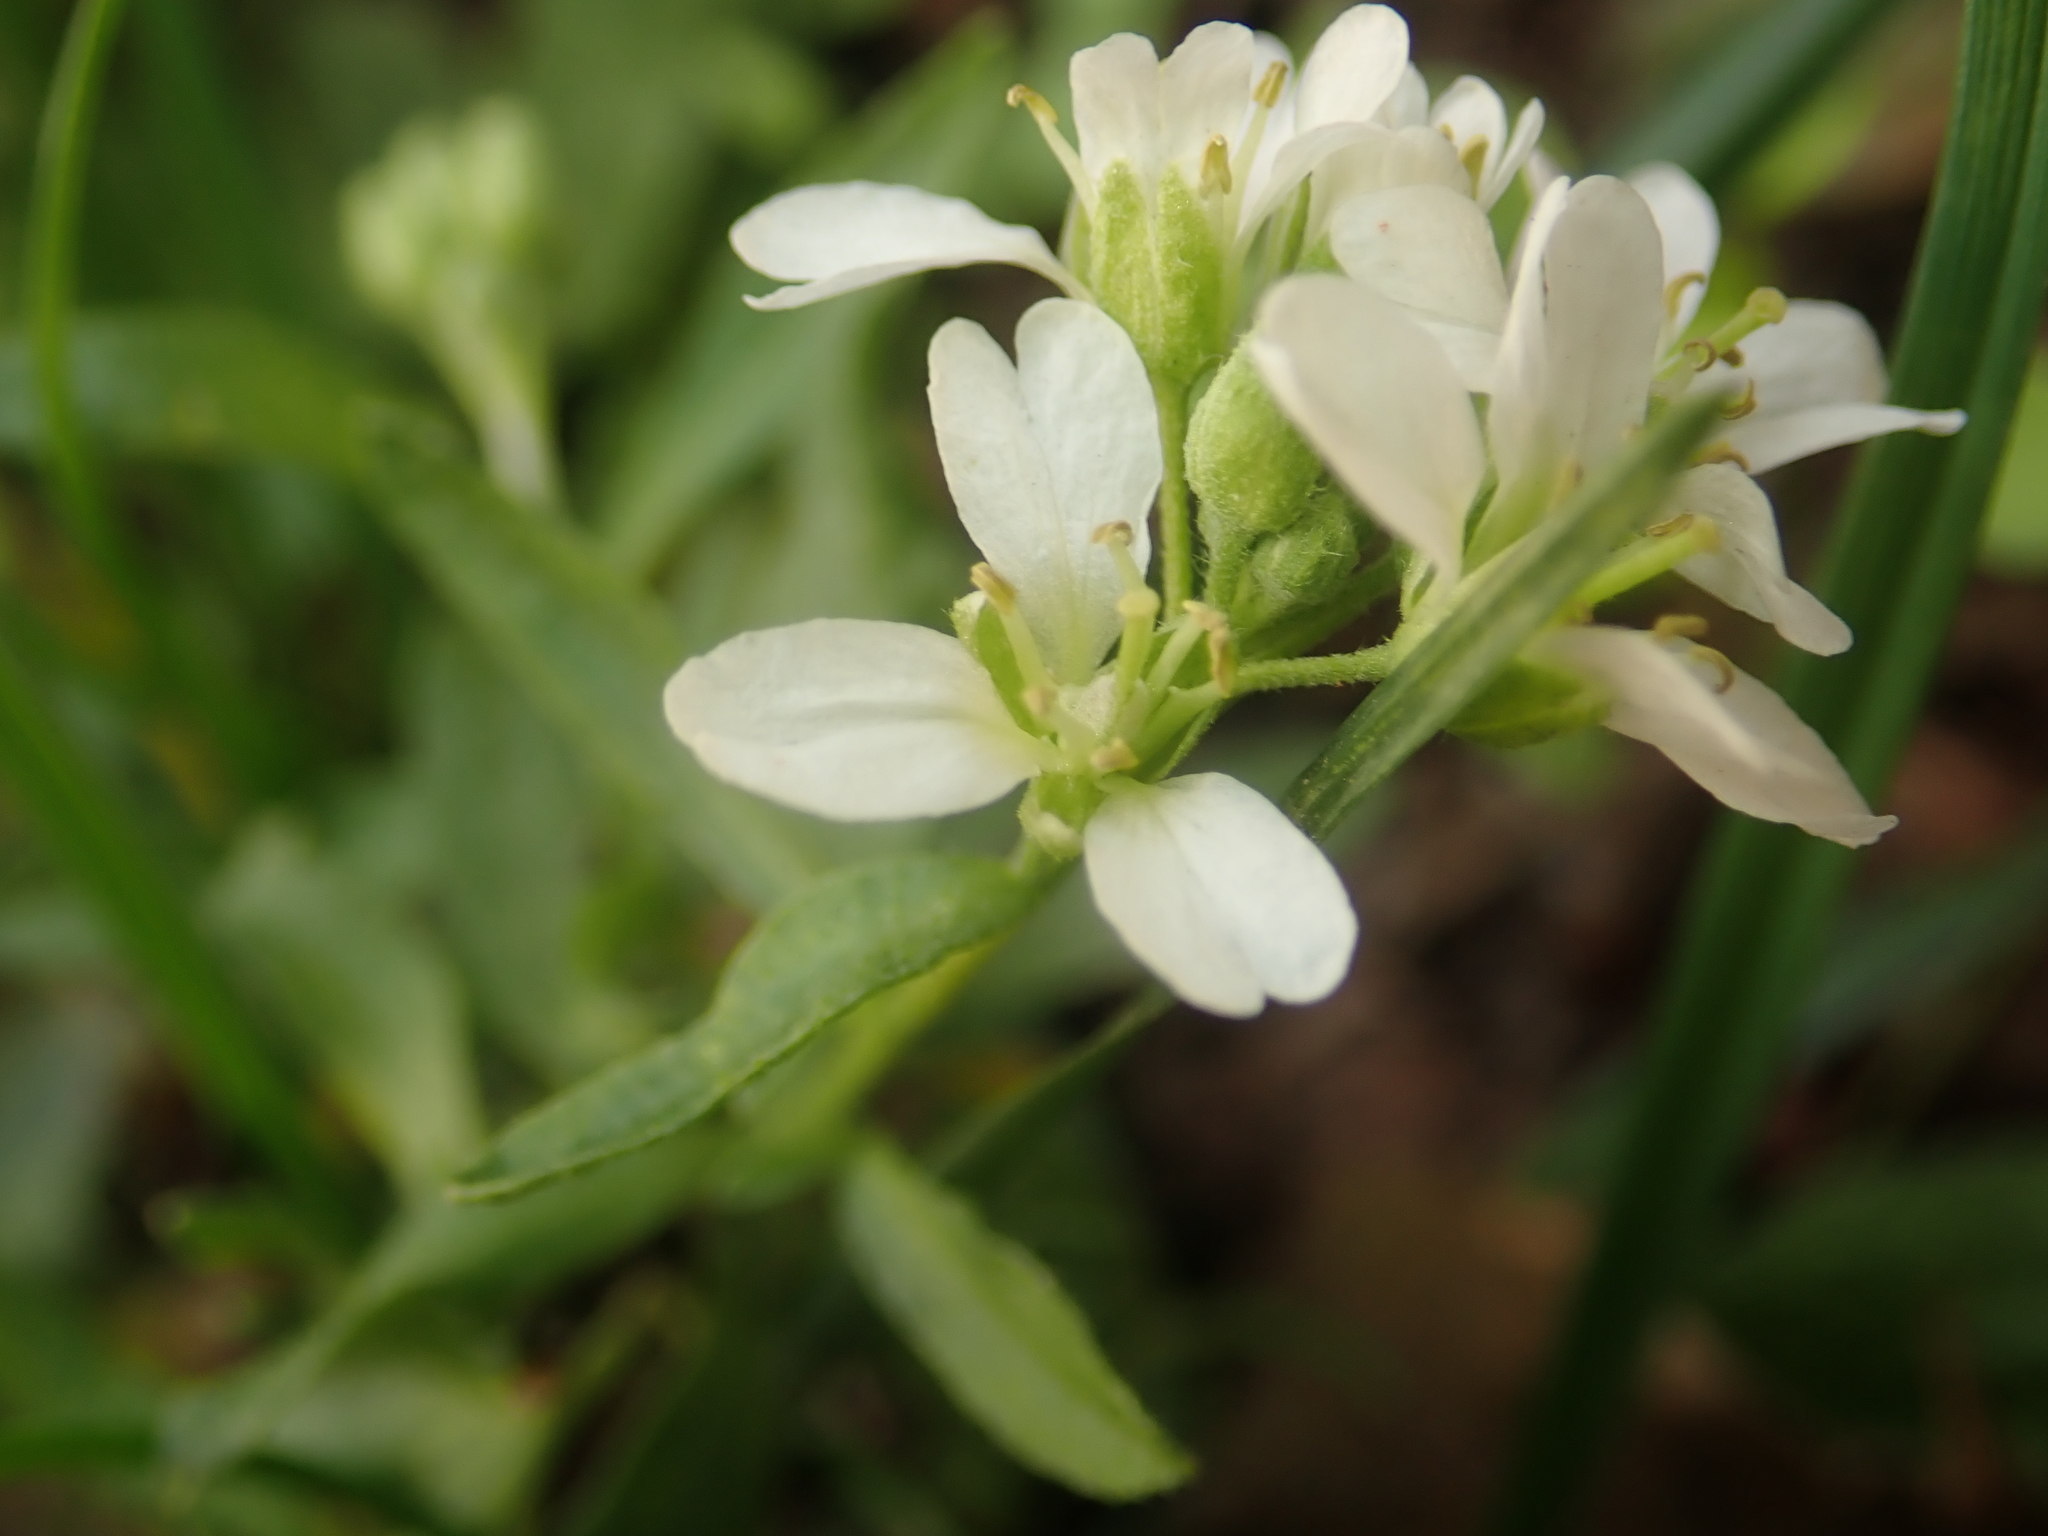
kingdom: Plantae
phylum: Tracheophyta
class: Magnoliopsida
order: Brassicales
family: Brassicaceae
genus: Berteroa
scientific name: Berteroa incana
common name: Hoary alison
